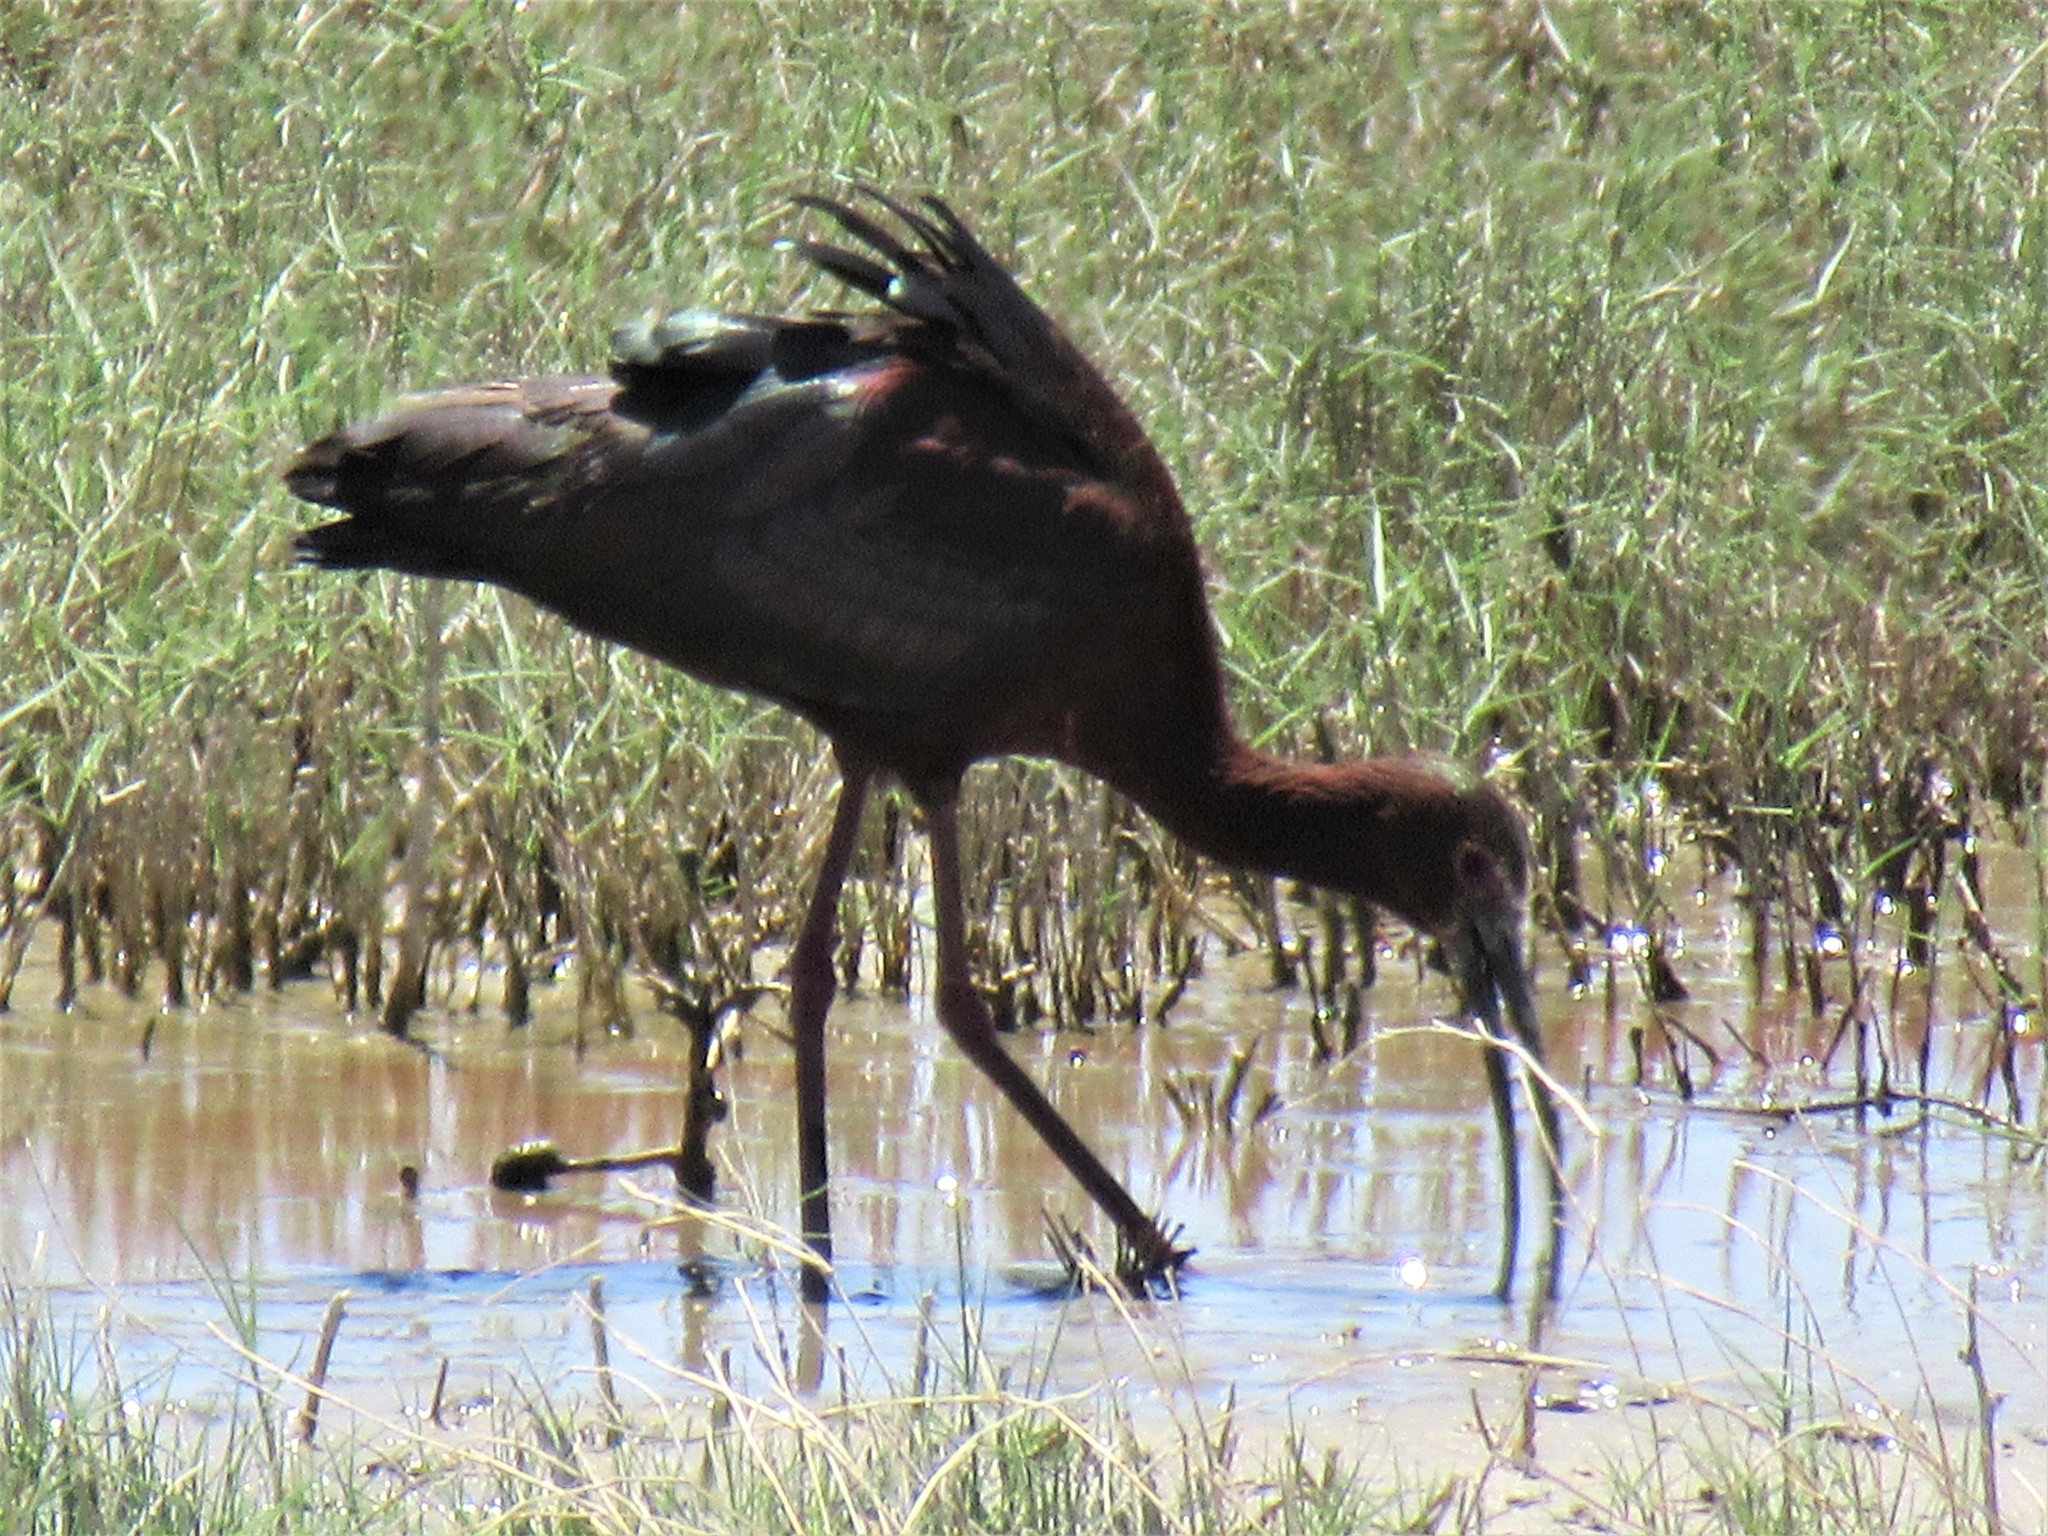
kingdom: Animalia
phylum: Chordata
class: Aves
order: Pelecaniformes
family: Threskiornithidae
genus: Plegadis
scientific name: Plegadis chihi
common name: White-faced ibis
